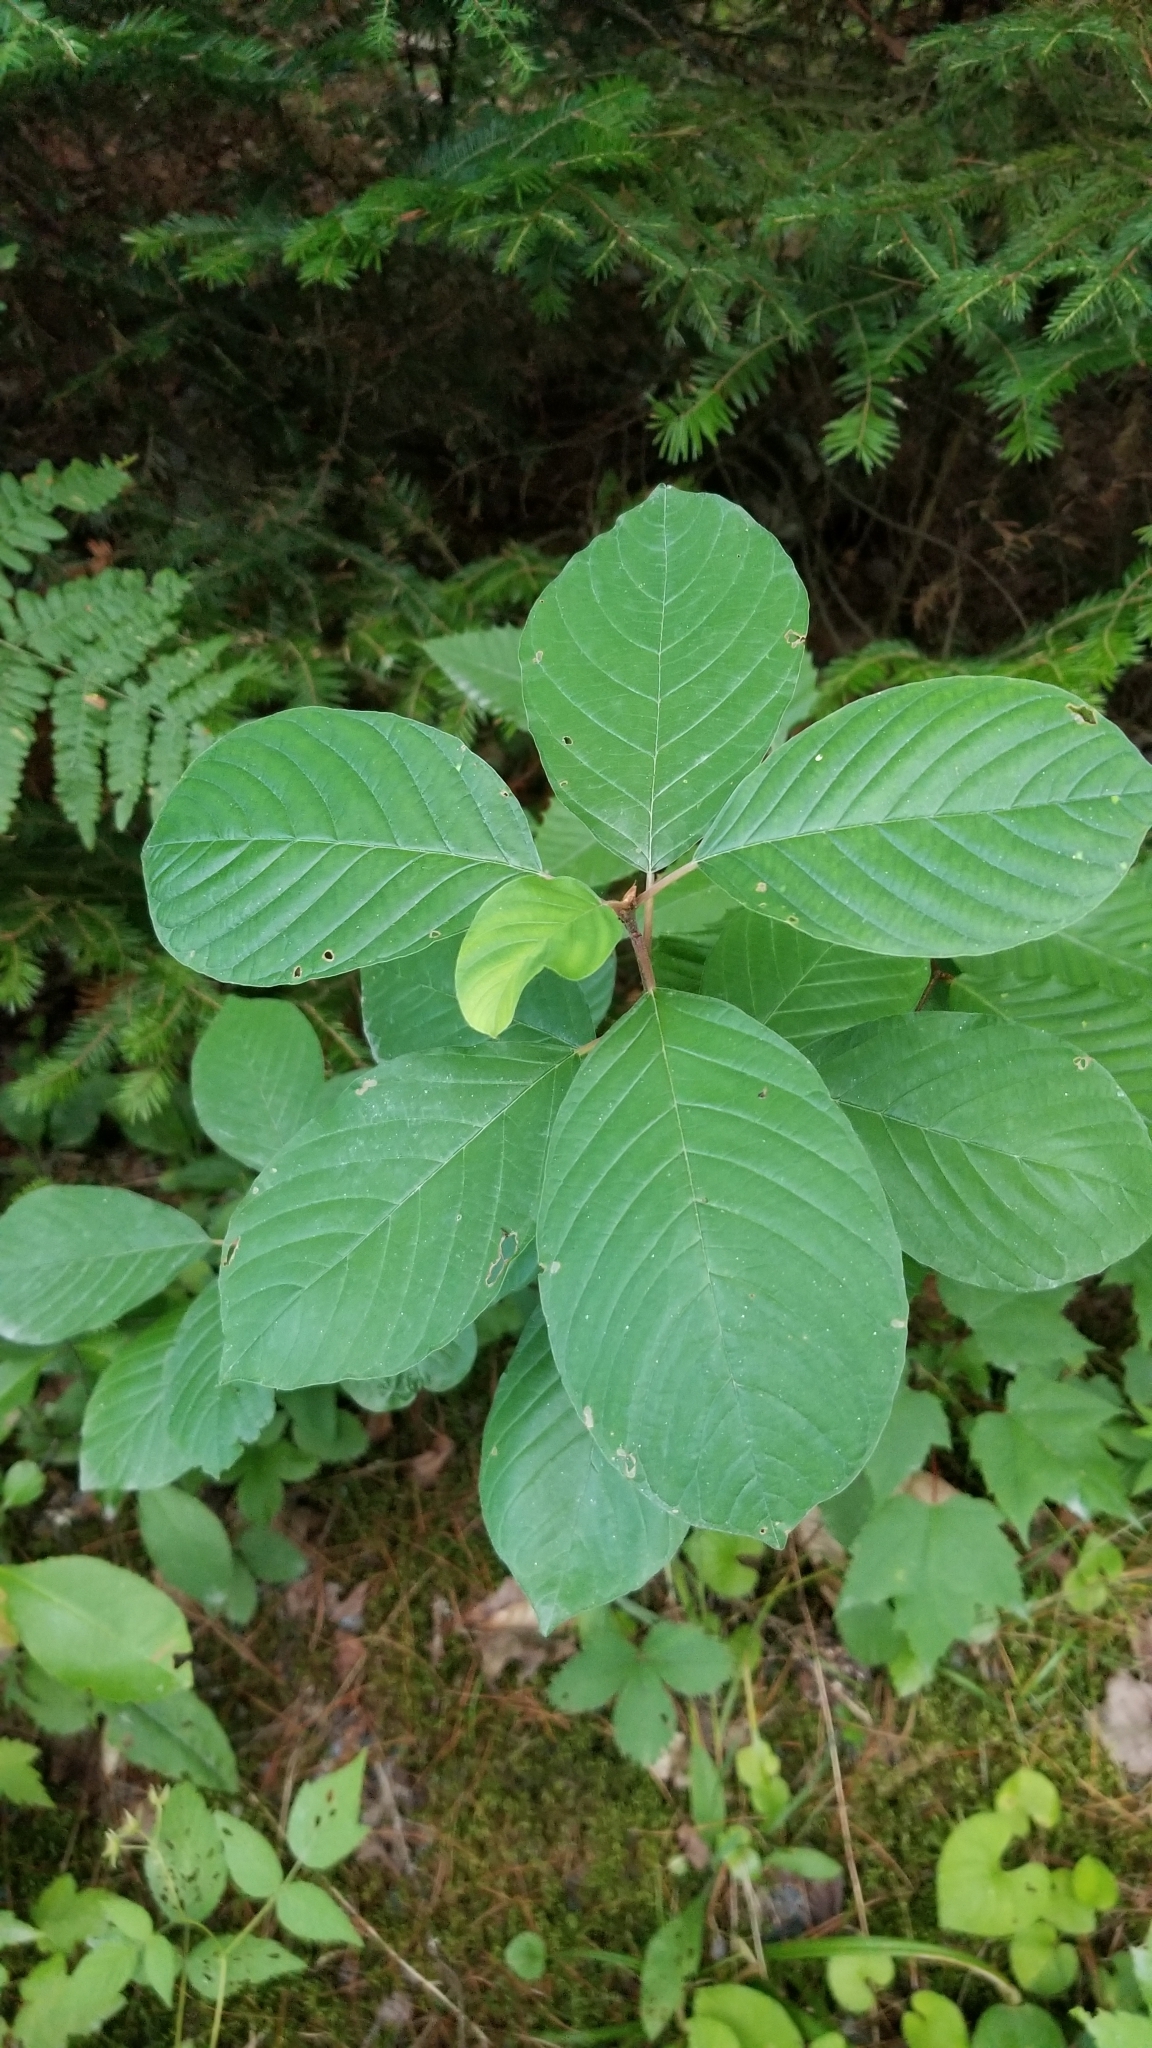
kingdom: Plantae
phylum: Tracheophyta
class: Magnoliopsida
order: Rosales
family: Rhamnaceae
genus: Frangula
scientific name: Frangula alnus
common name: Alder buckthorn
